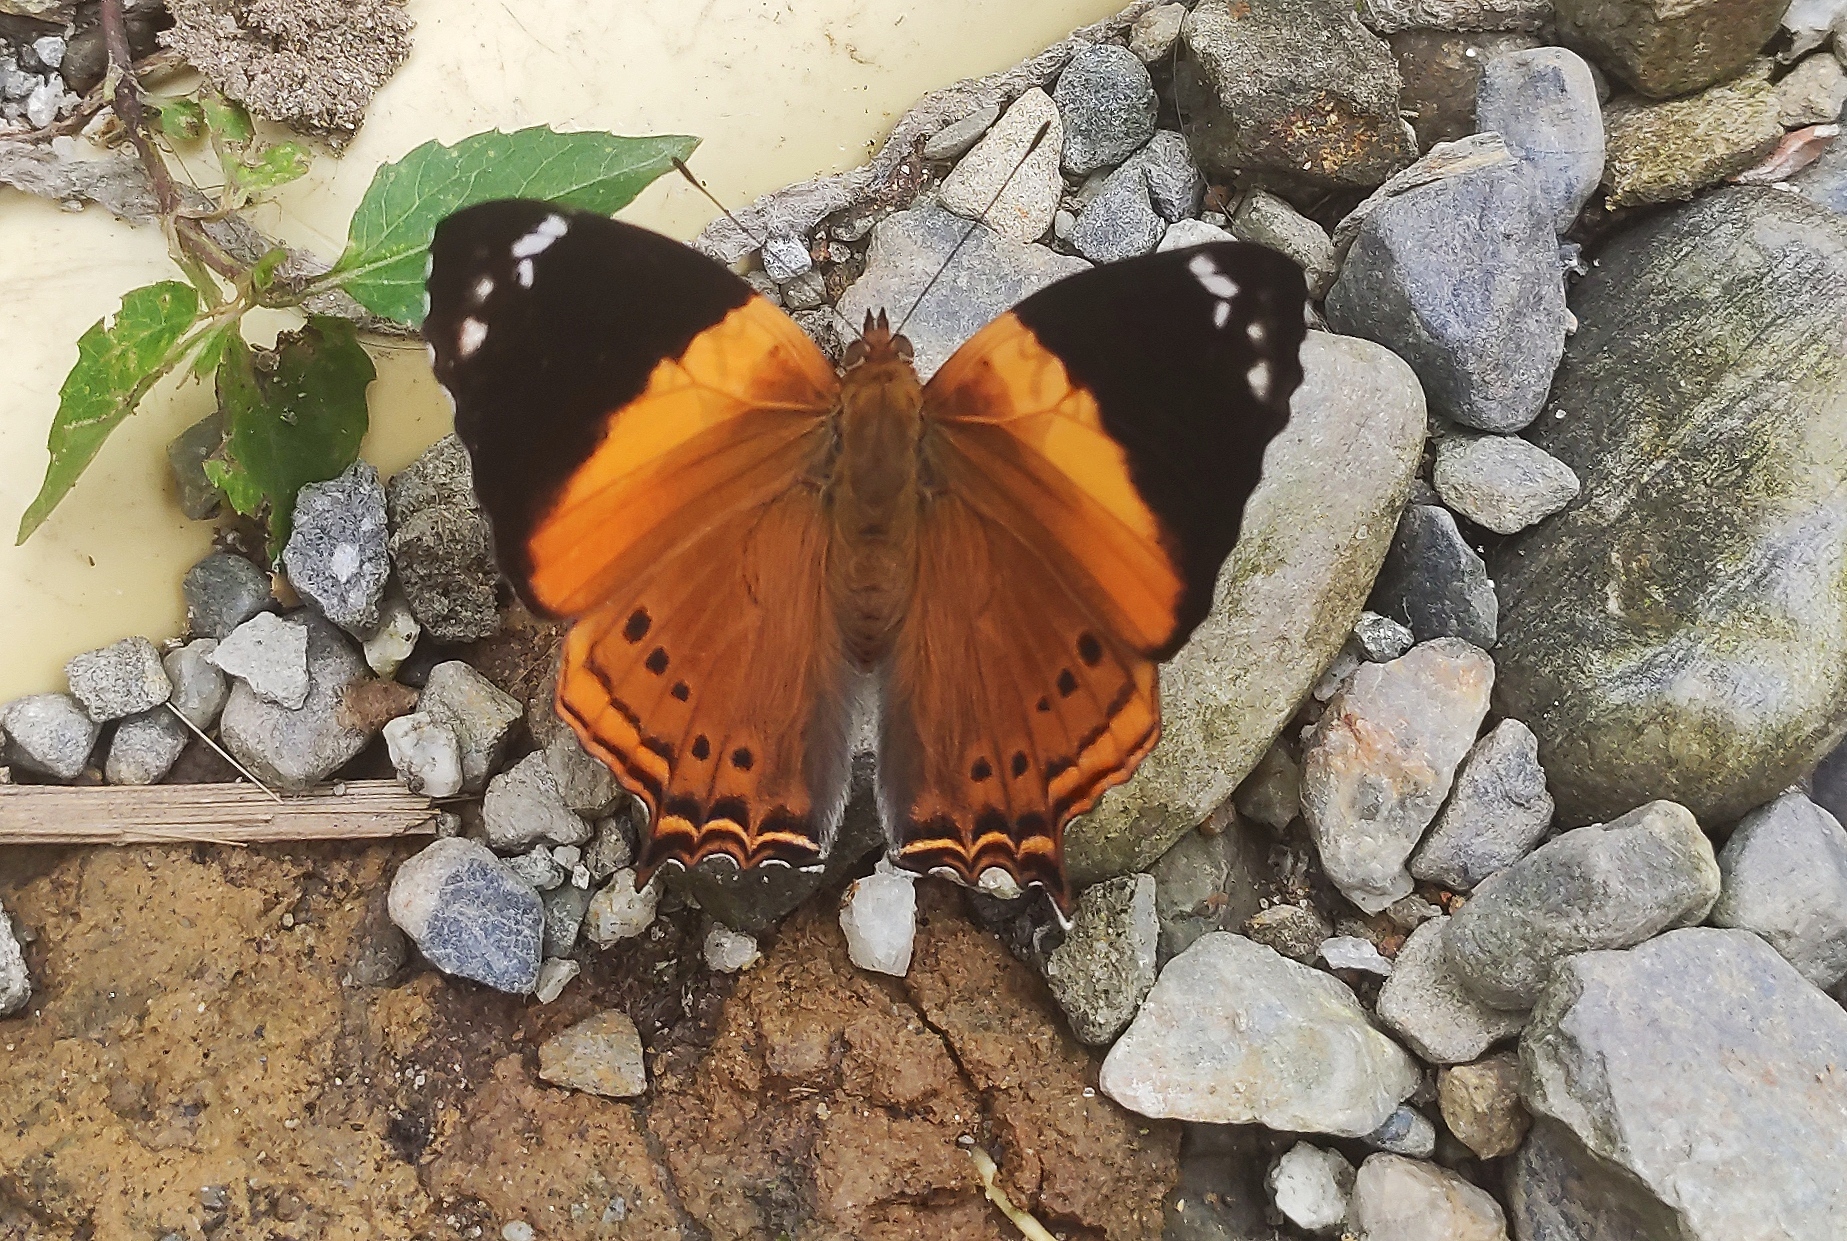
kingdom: Animalia
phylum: Arthropoda
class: Insecta
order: Lepidoptera
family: Nymphalidae
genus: Hypanartia
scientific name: Hypanartia godmanii
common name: Godman's mapwing
